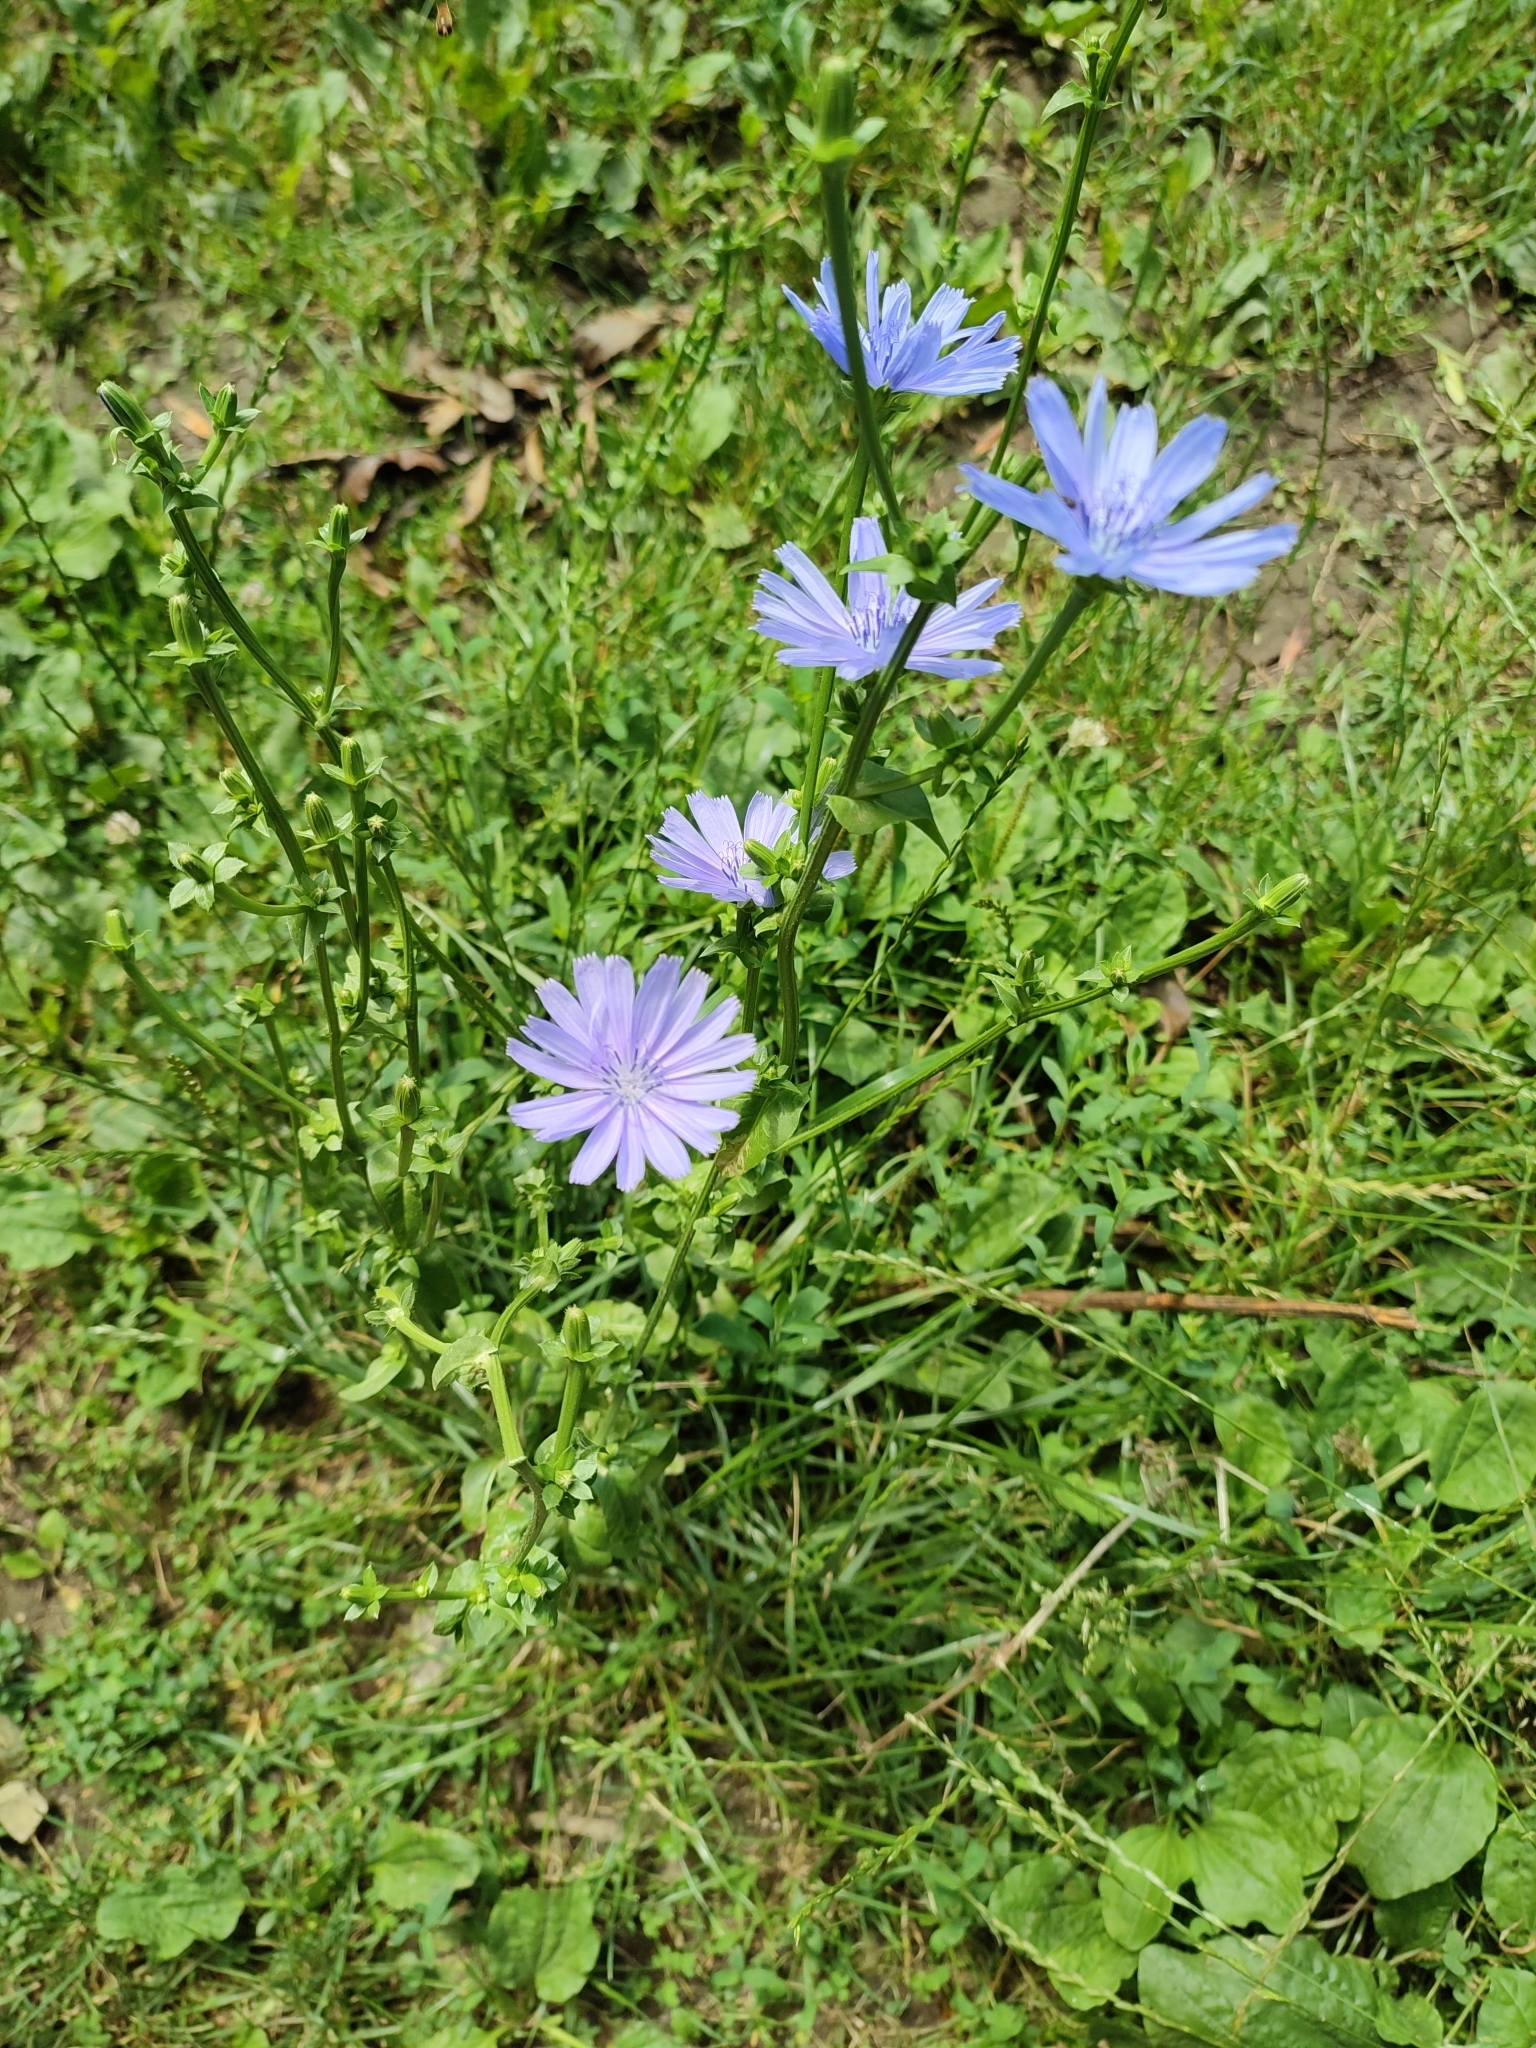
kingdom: Plantae
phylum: Tracheophyta
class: Magnoliopsida
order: Asterales
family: Asteraceae
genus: Cichorium
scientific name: Cichorium intybus
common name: Chicory
